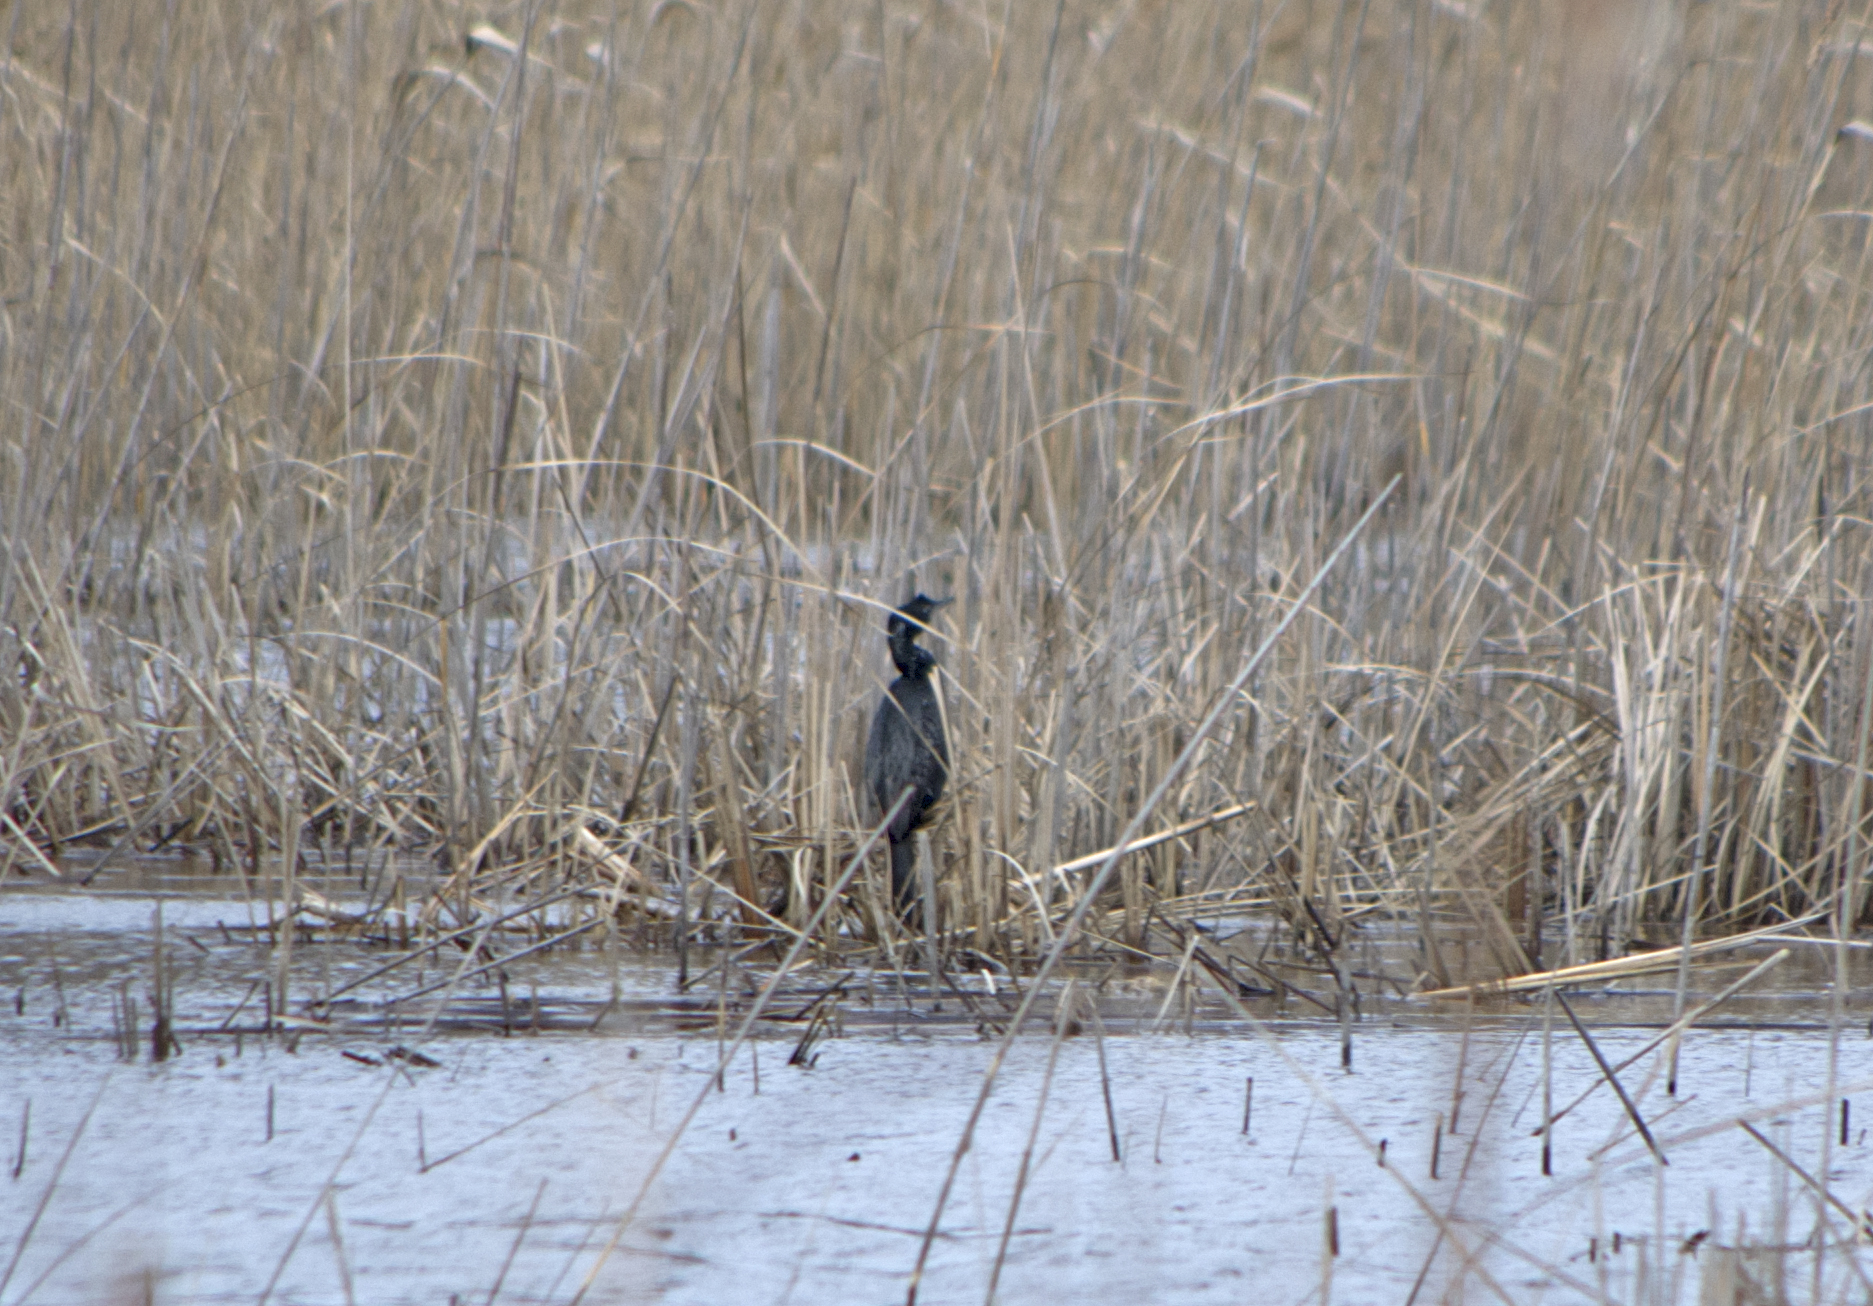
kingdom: Animalia
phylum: Chordata
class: Aves
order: Suliformes
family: Phalacrocoracidae
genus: Microcarbo
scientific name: Microcarbo pygmaeus
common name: Pygmy cormorant
